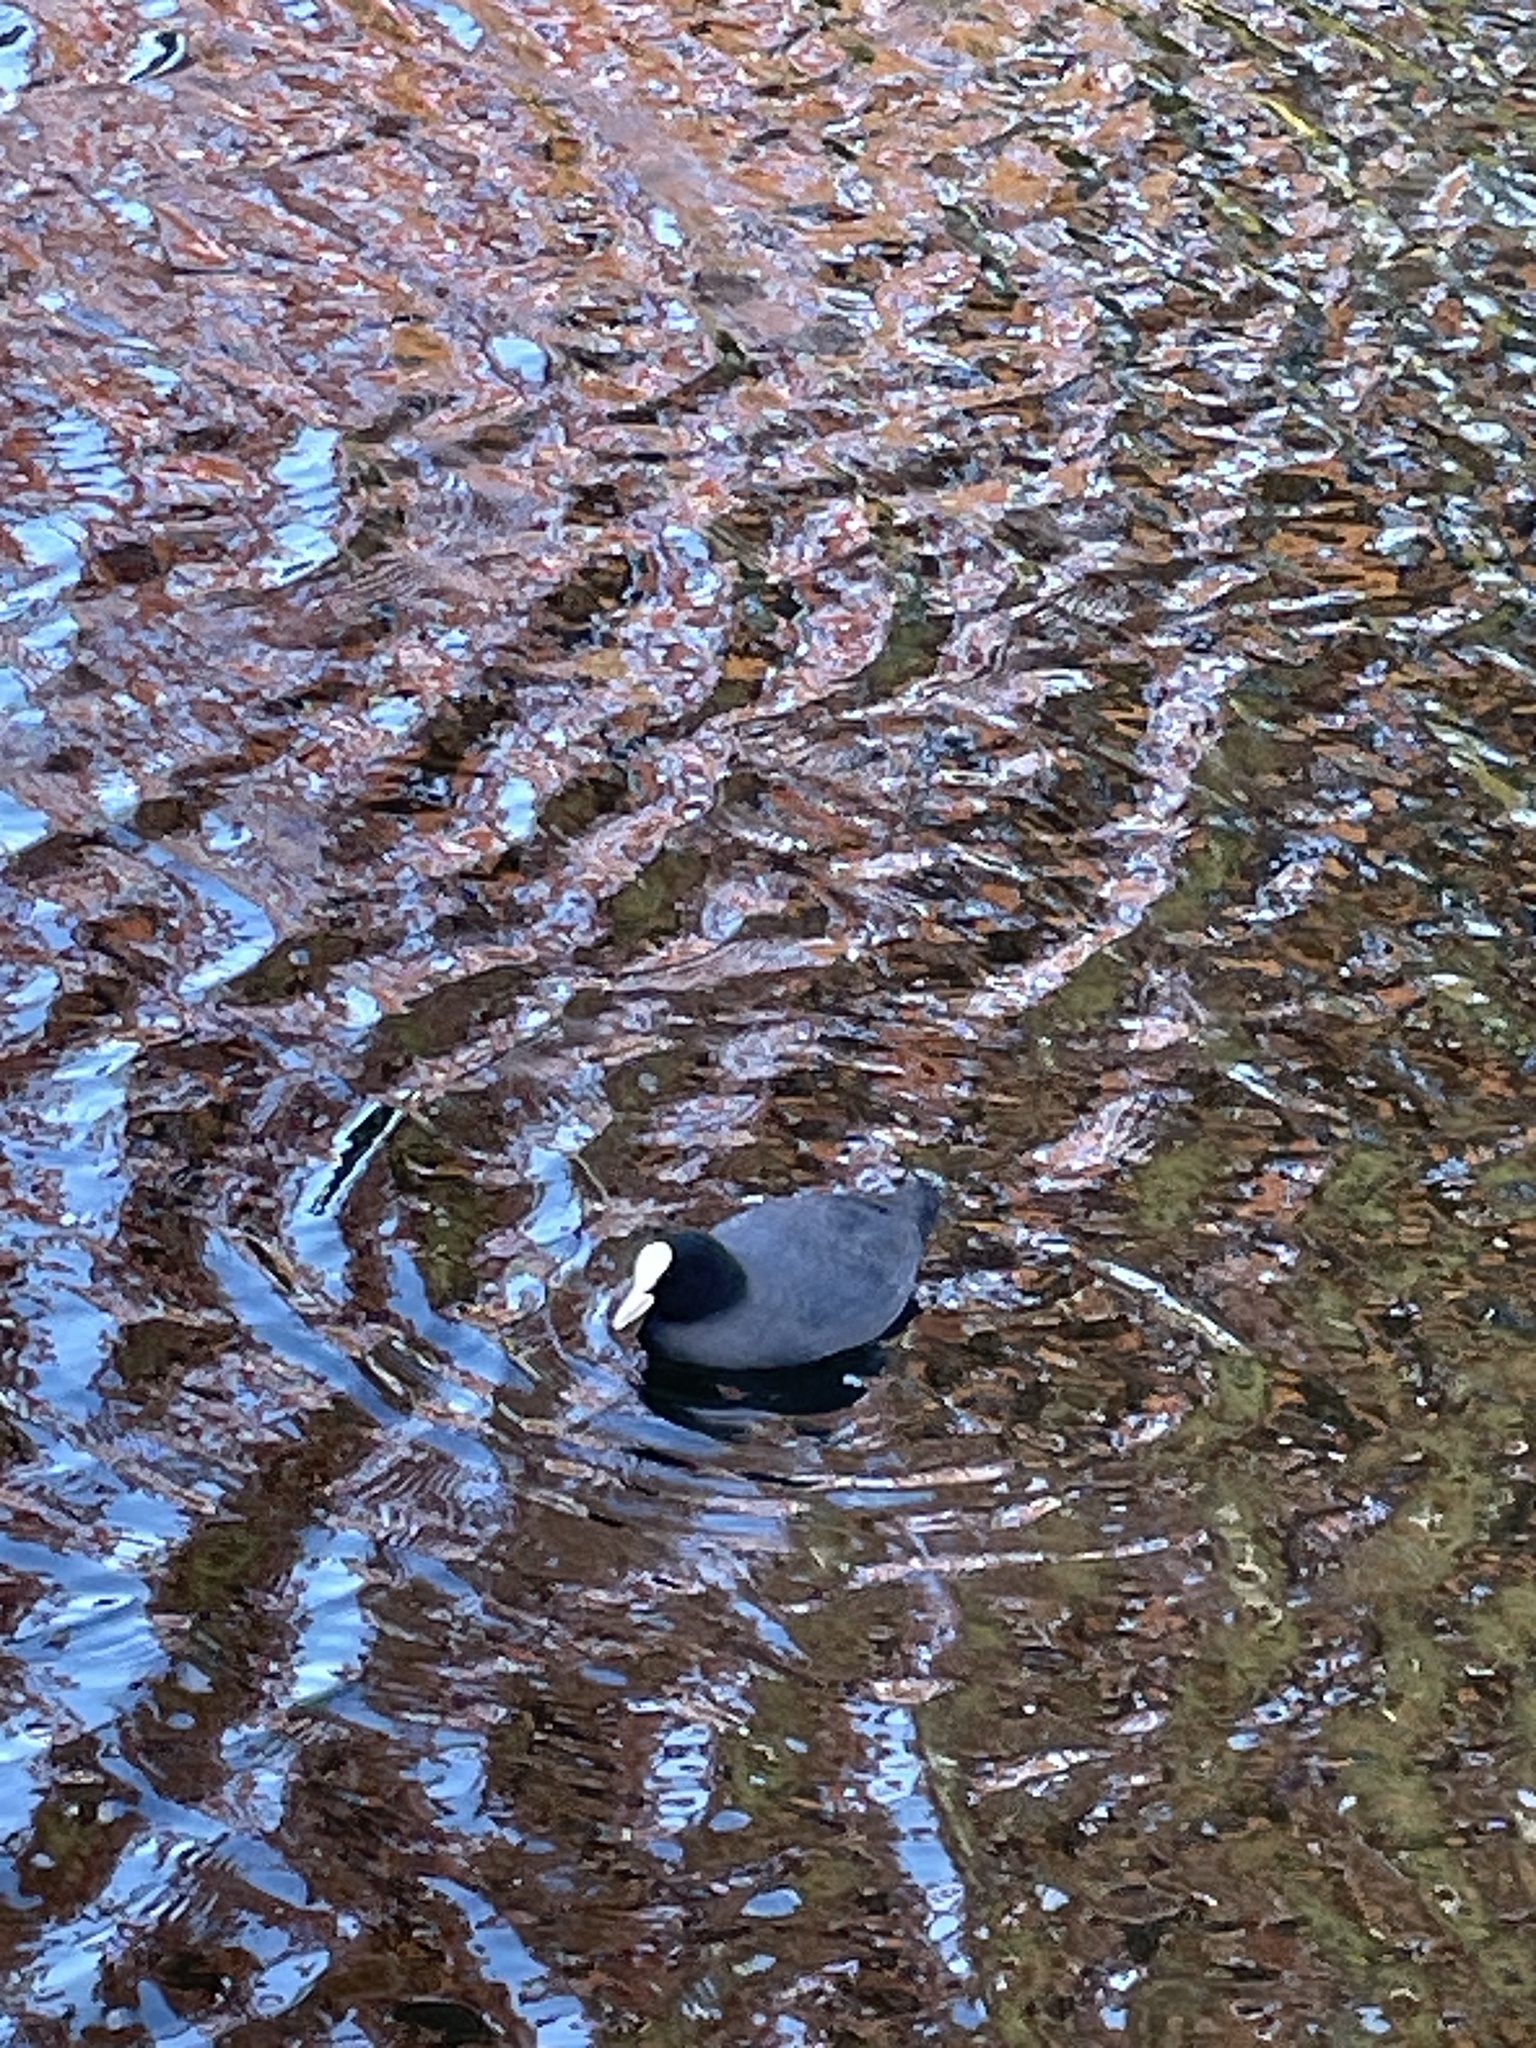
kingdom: Animalia
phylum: Chordata
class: Aves
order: Gruiformes
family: Rallidae
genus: Fulica
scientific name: Fulica atra
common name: Eurasian coot
